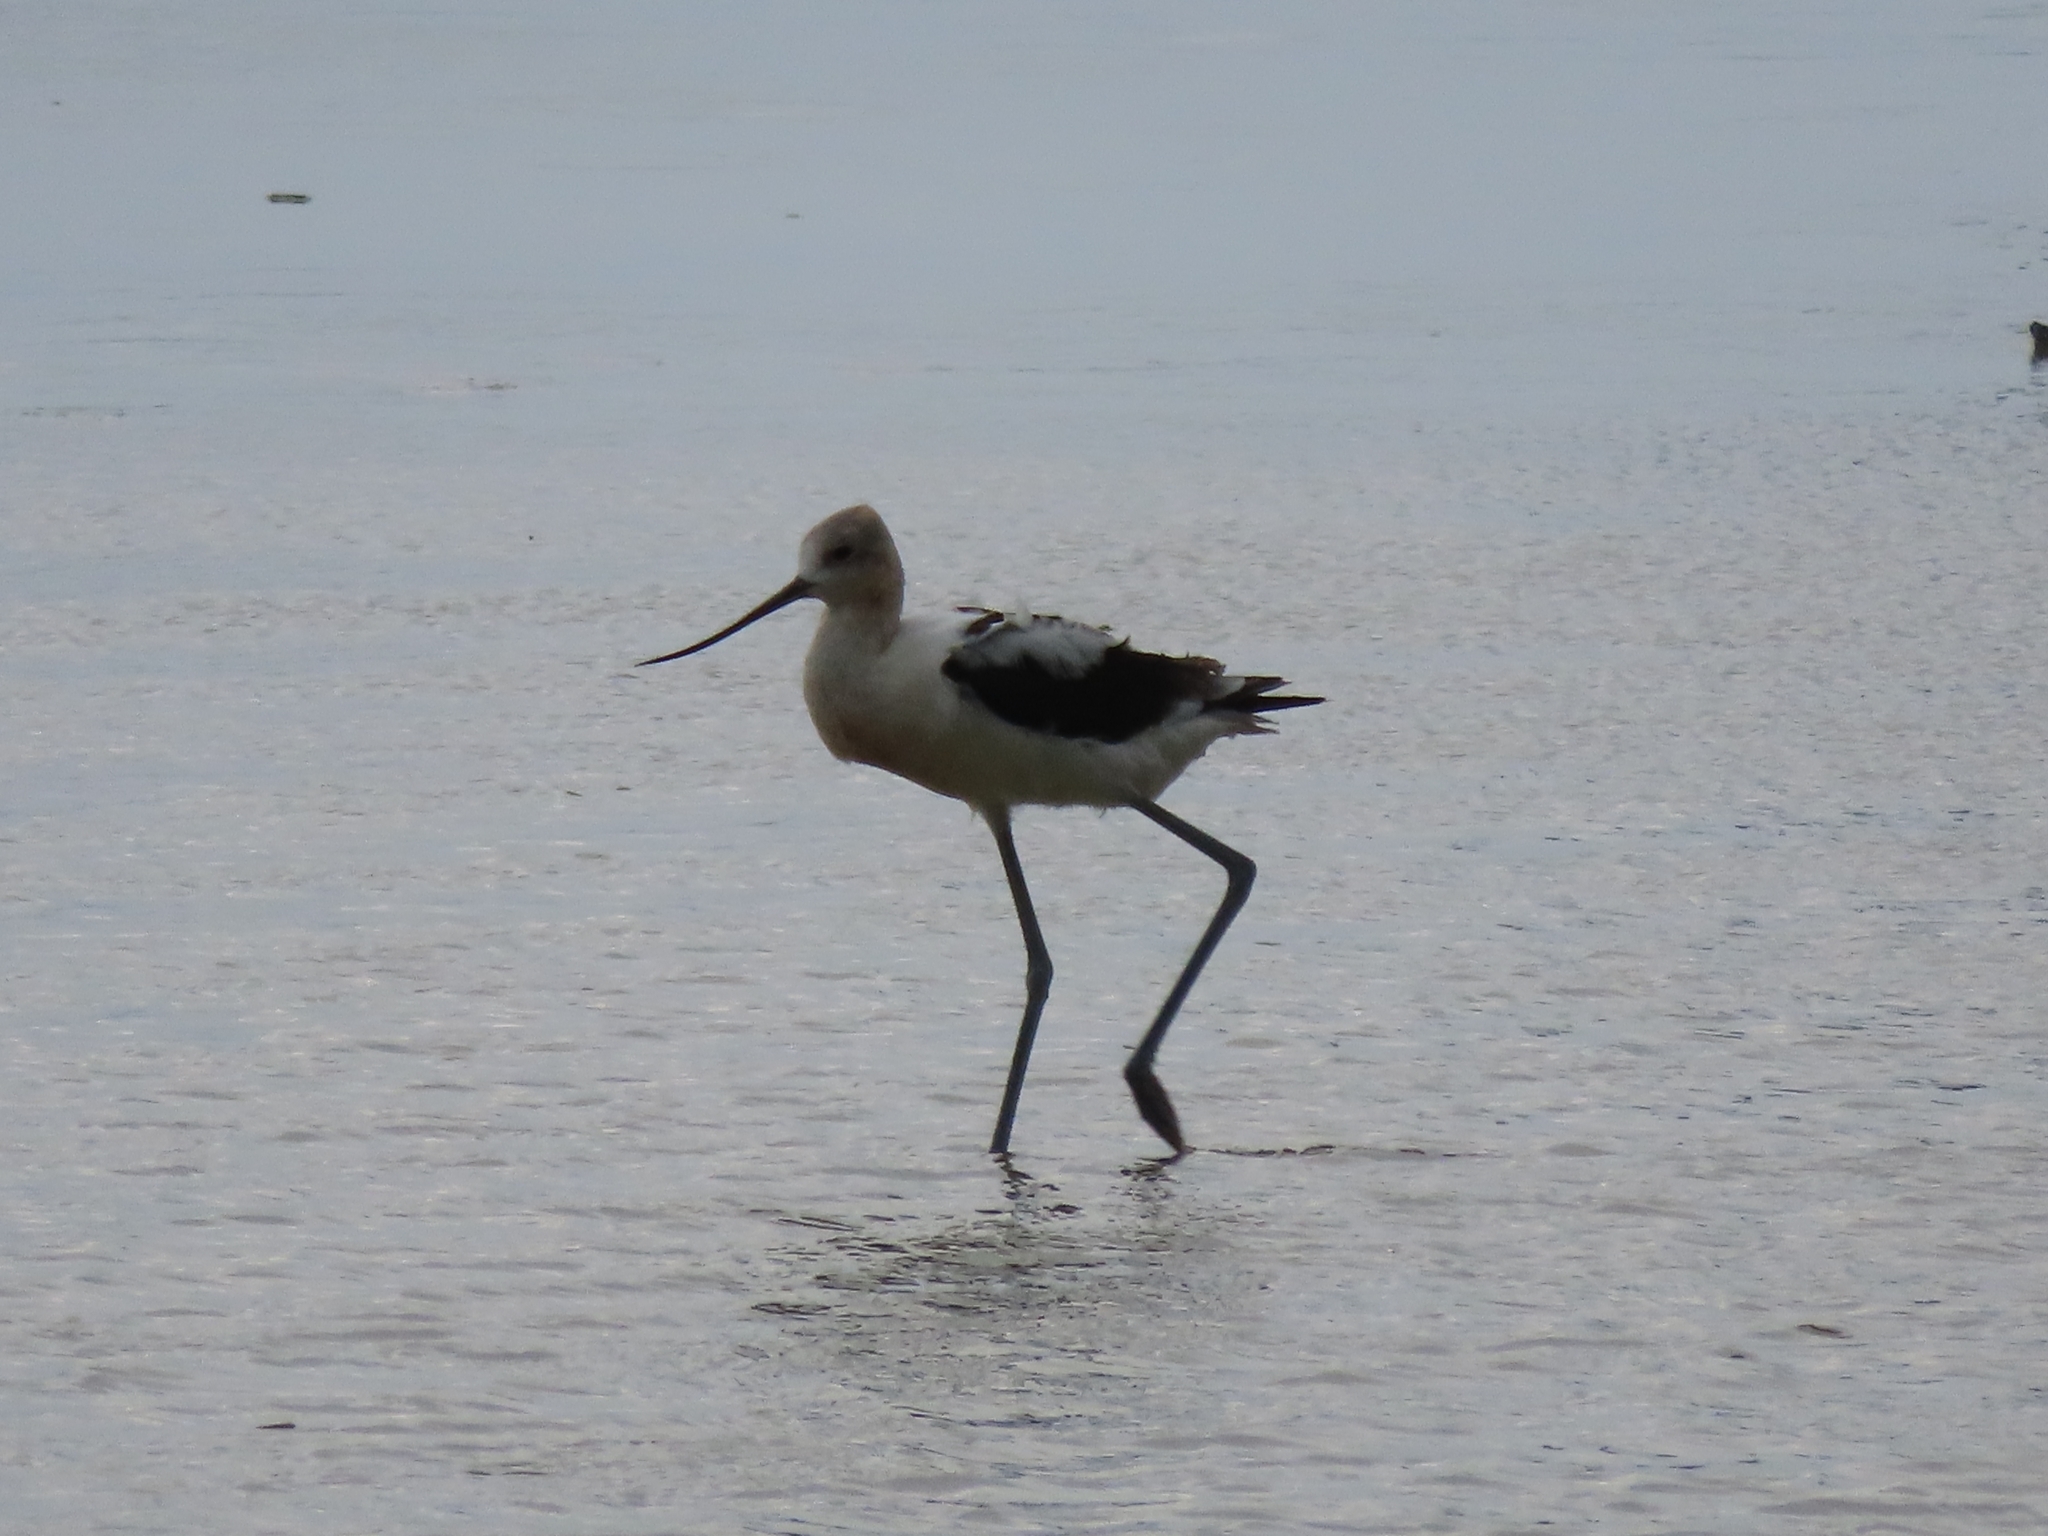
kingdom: Animalia
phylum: Chordata
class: Aves
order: Charadriiformes
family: Recurvirostridae
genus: Recurvirostra
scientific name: Recurvirostra americana
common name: American avocet
